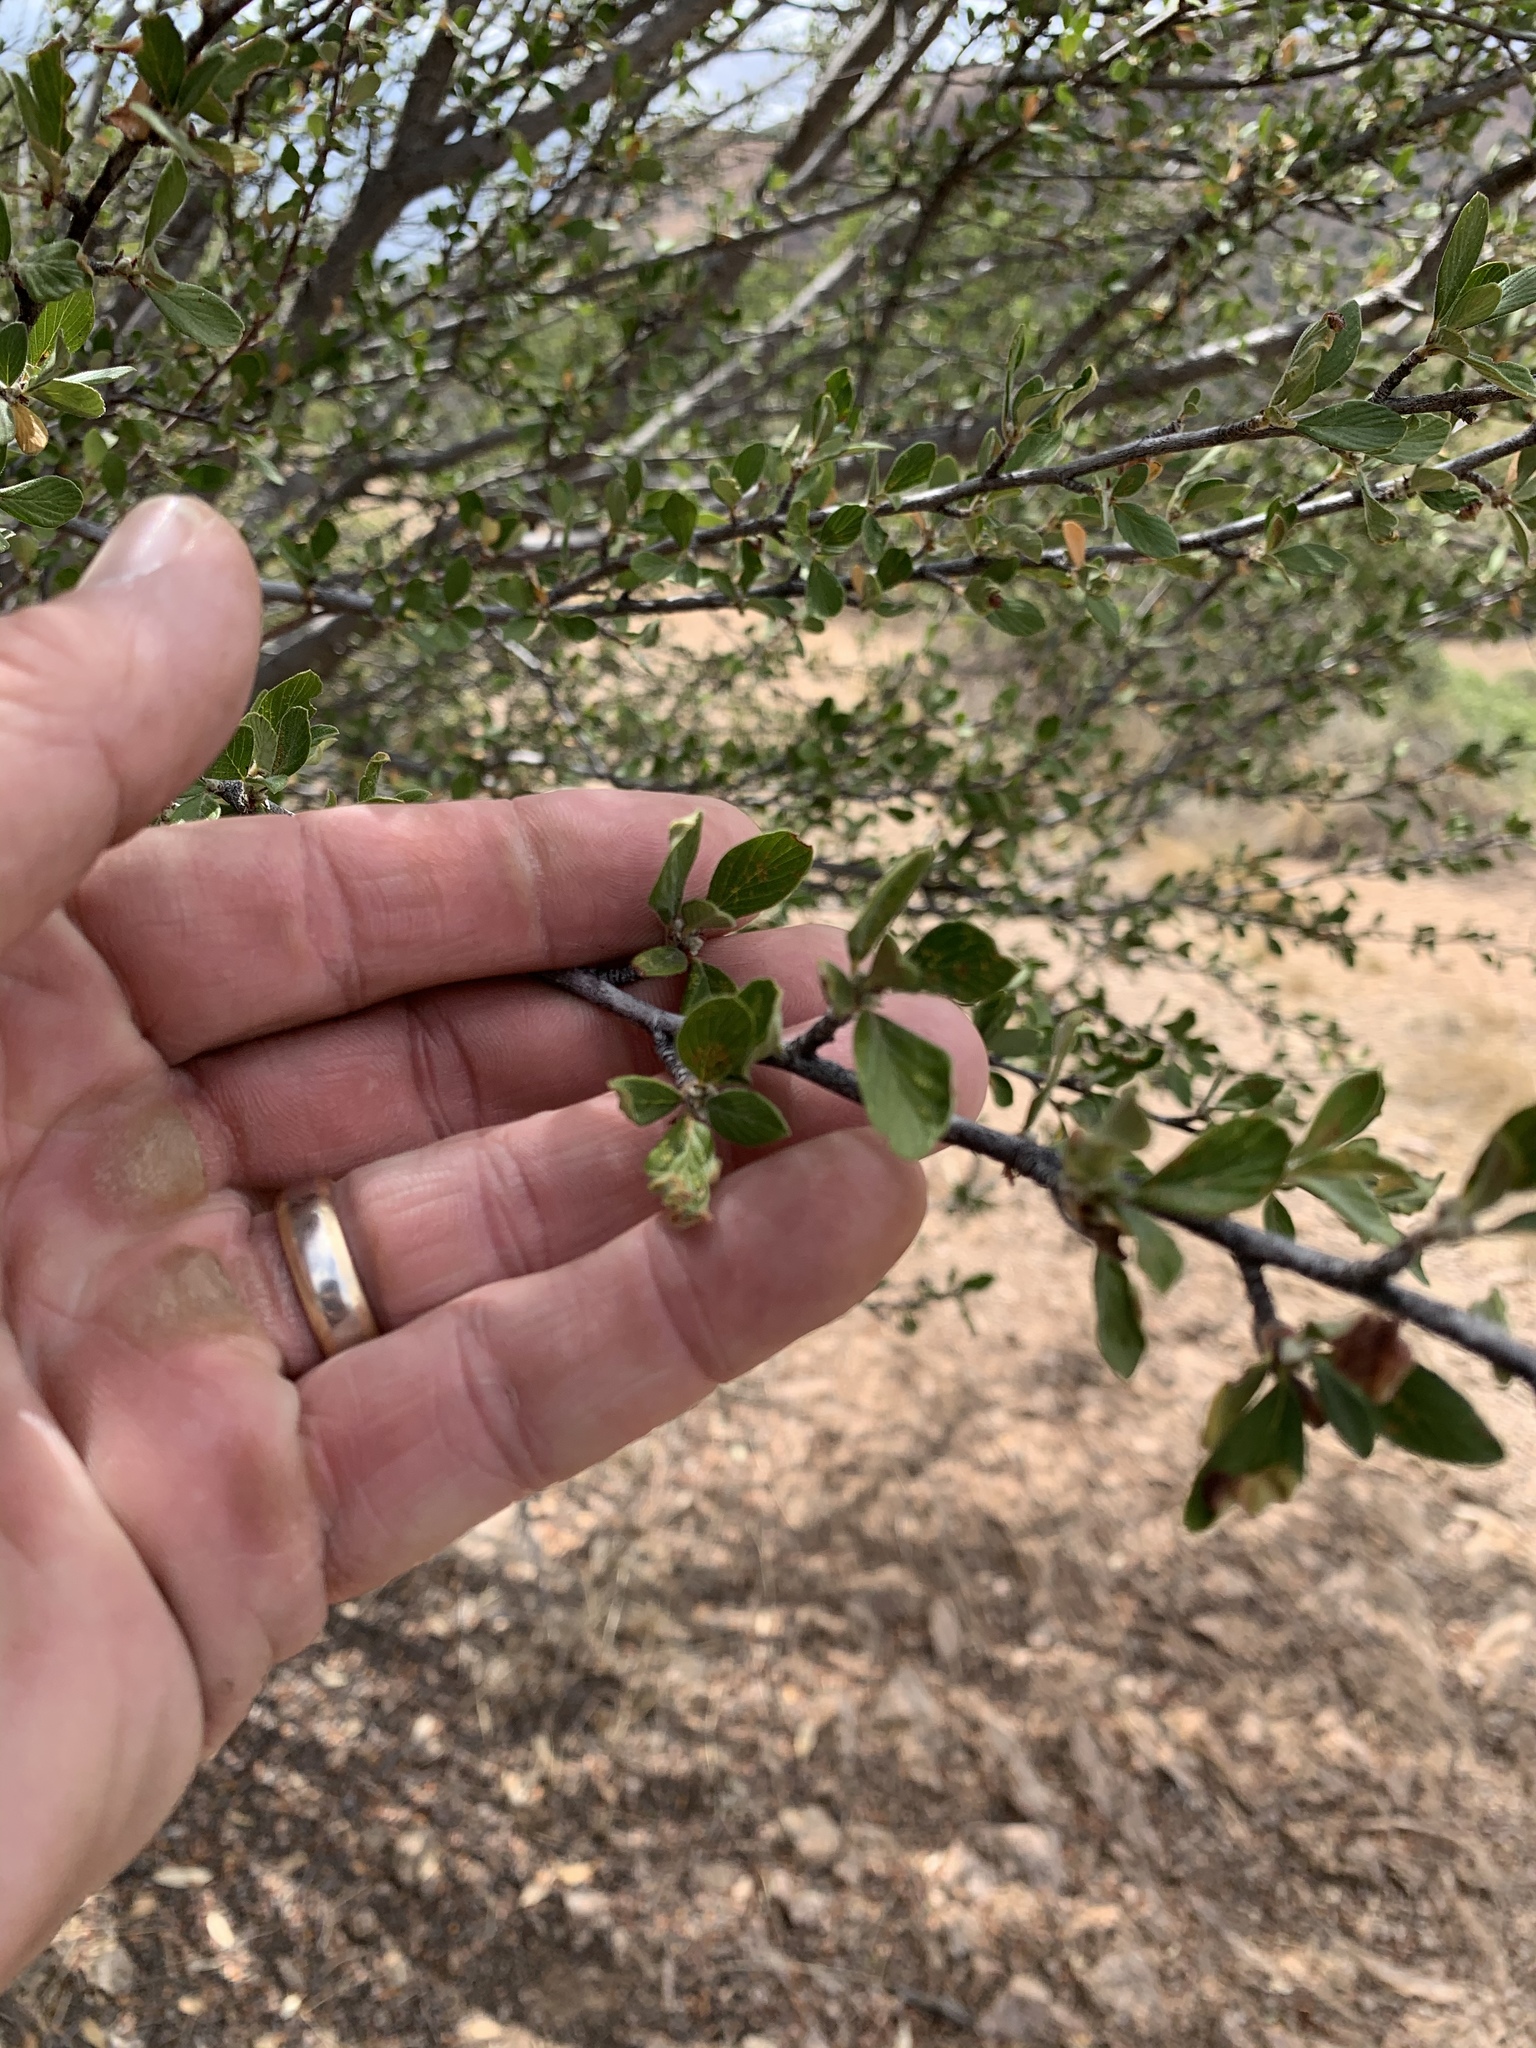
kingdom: Plantae
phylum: Tracheophyta
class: Magnoliopsida
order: Rosales
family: Rosaceae
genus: Cercocarpus
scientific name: Cercocarpus breviflorus
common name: Wright's mountain-mahogany
